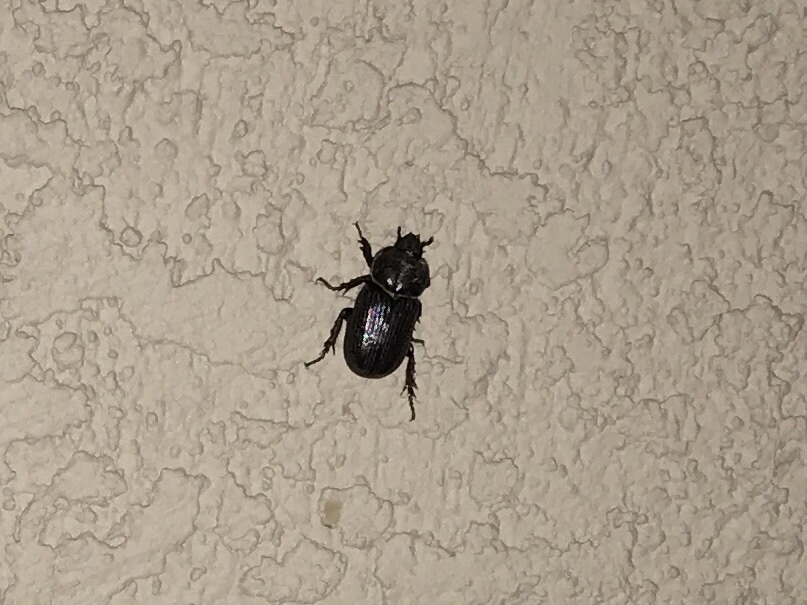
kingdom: Animalia
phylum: Arthropoda
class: Insecta
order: Coleoptera
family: Scarabaeidae
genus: Hemiphileurus
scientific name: Hemiphileurus illatus
